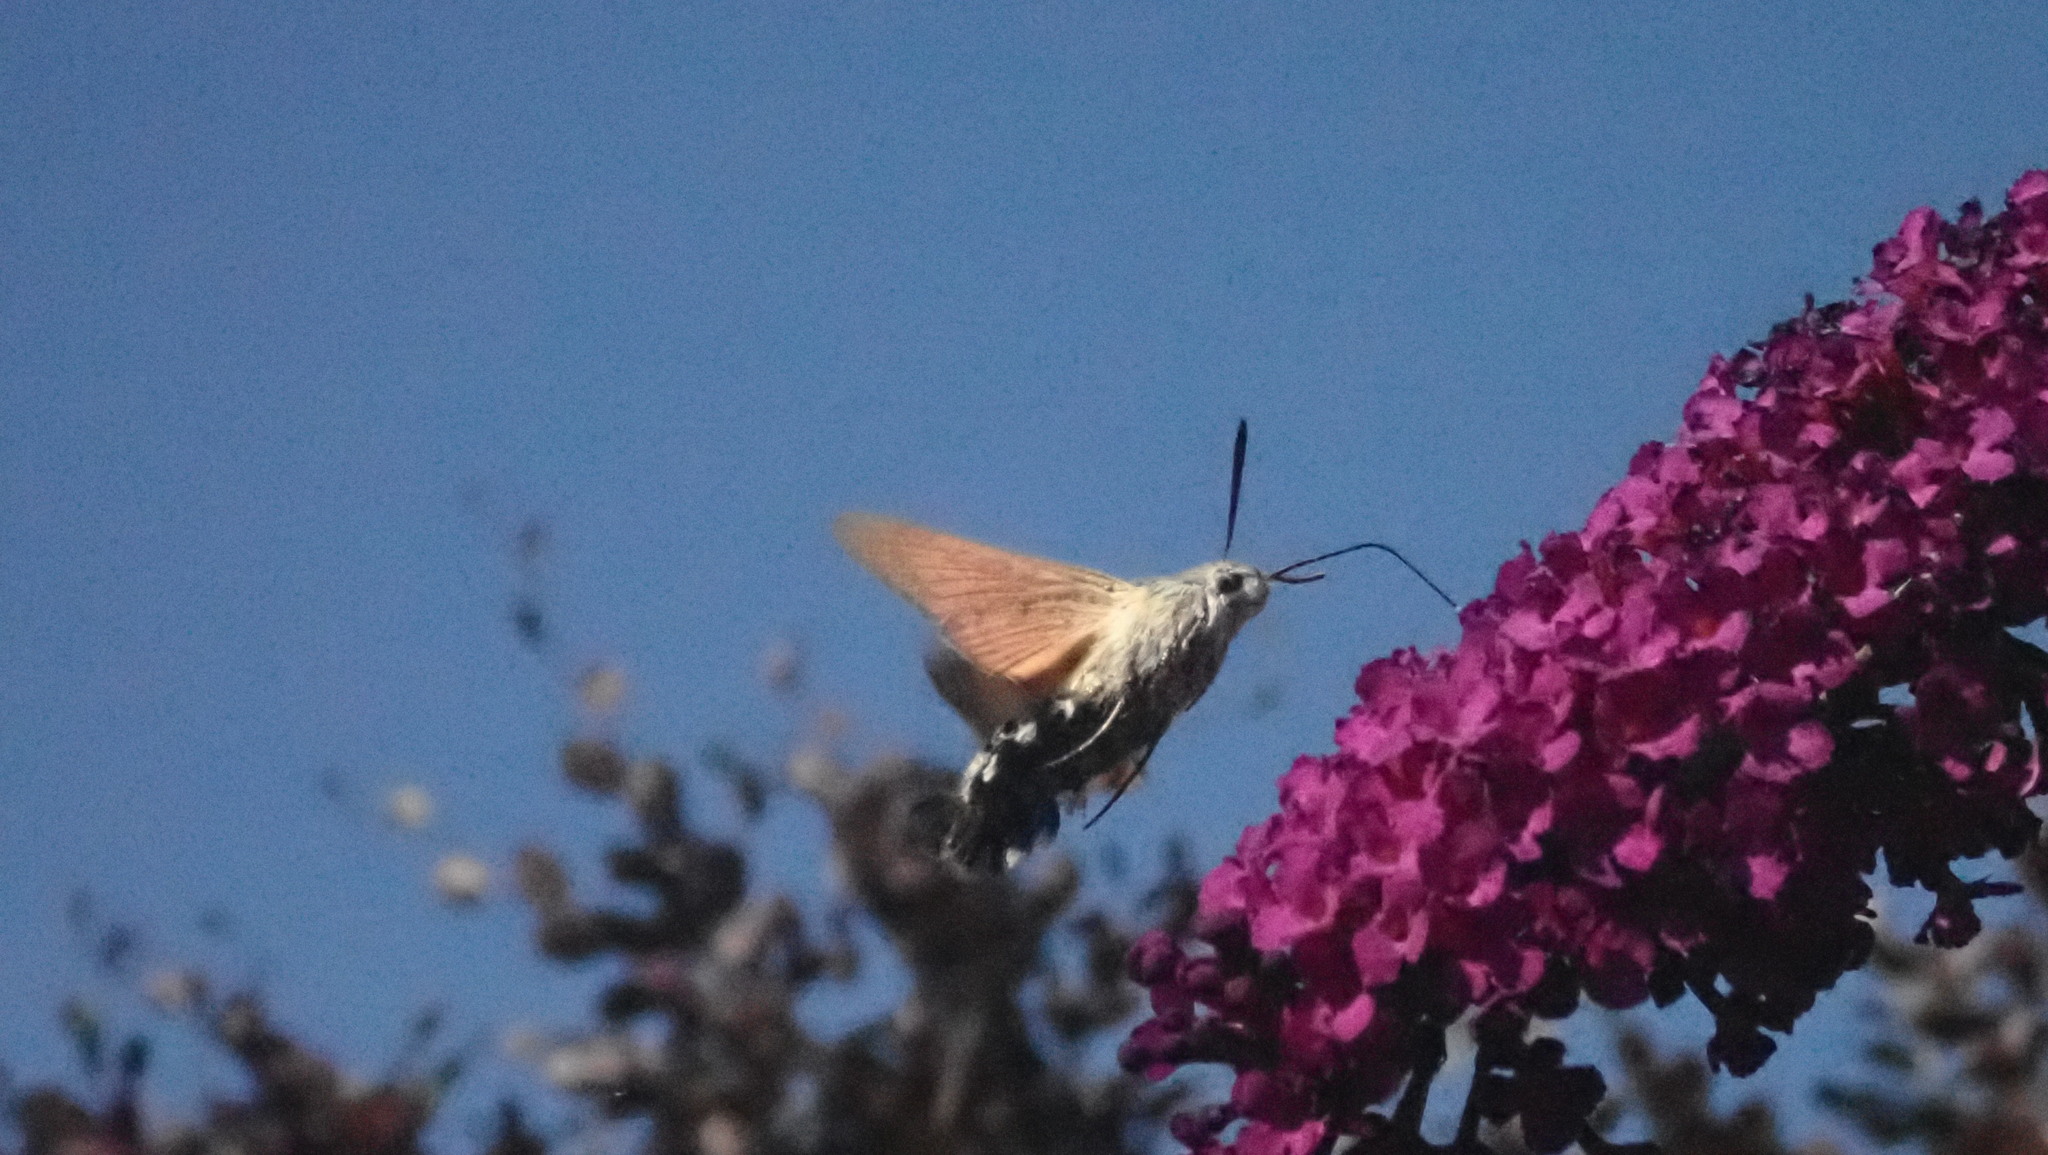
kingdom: Animalia
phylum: Arthropoda
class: Insecta
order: Lepidoptera
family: Sphingidae
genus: Macroglossum
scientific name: Macroglossum stellatarum
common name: Humming-bird hawk-moth
